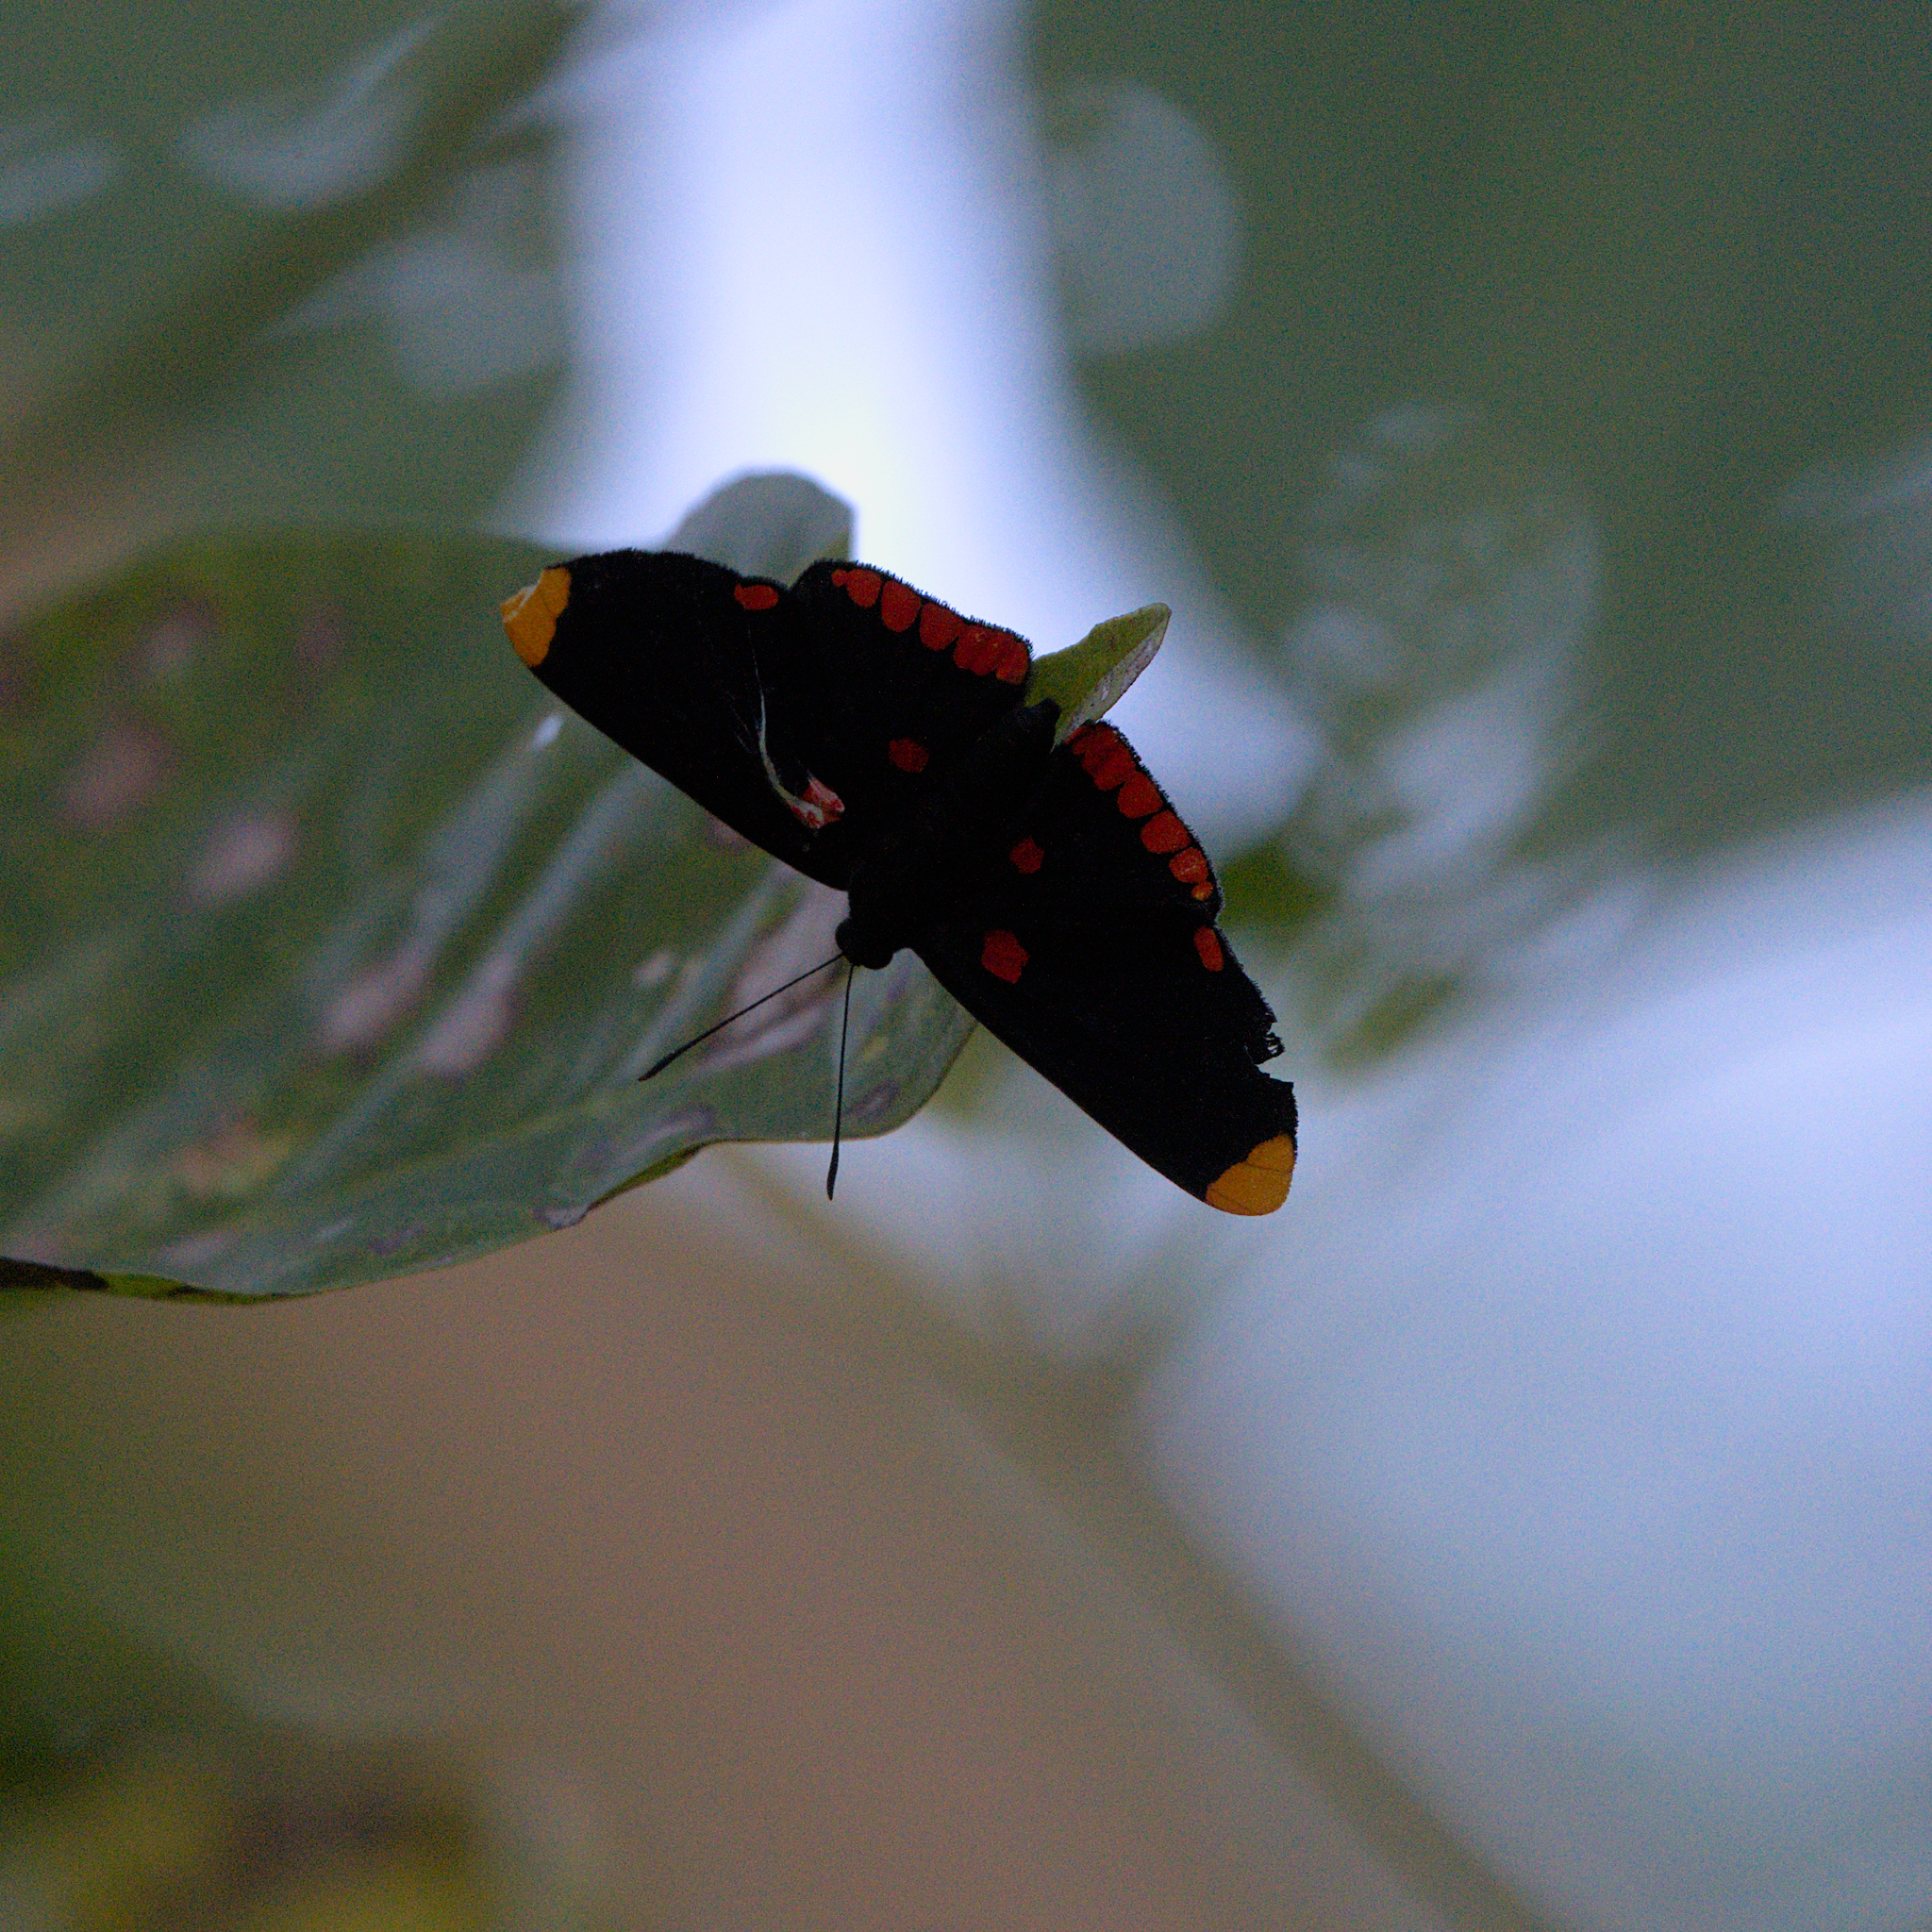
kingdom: Animalia
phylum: Arthropoda
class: Insecta
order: Lepidoptera
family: Lycaenidae
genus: Melanis
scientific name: Melanis pixe
